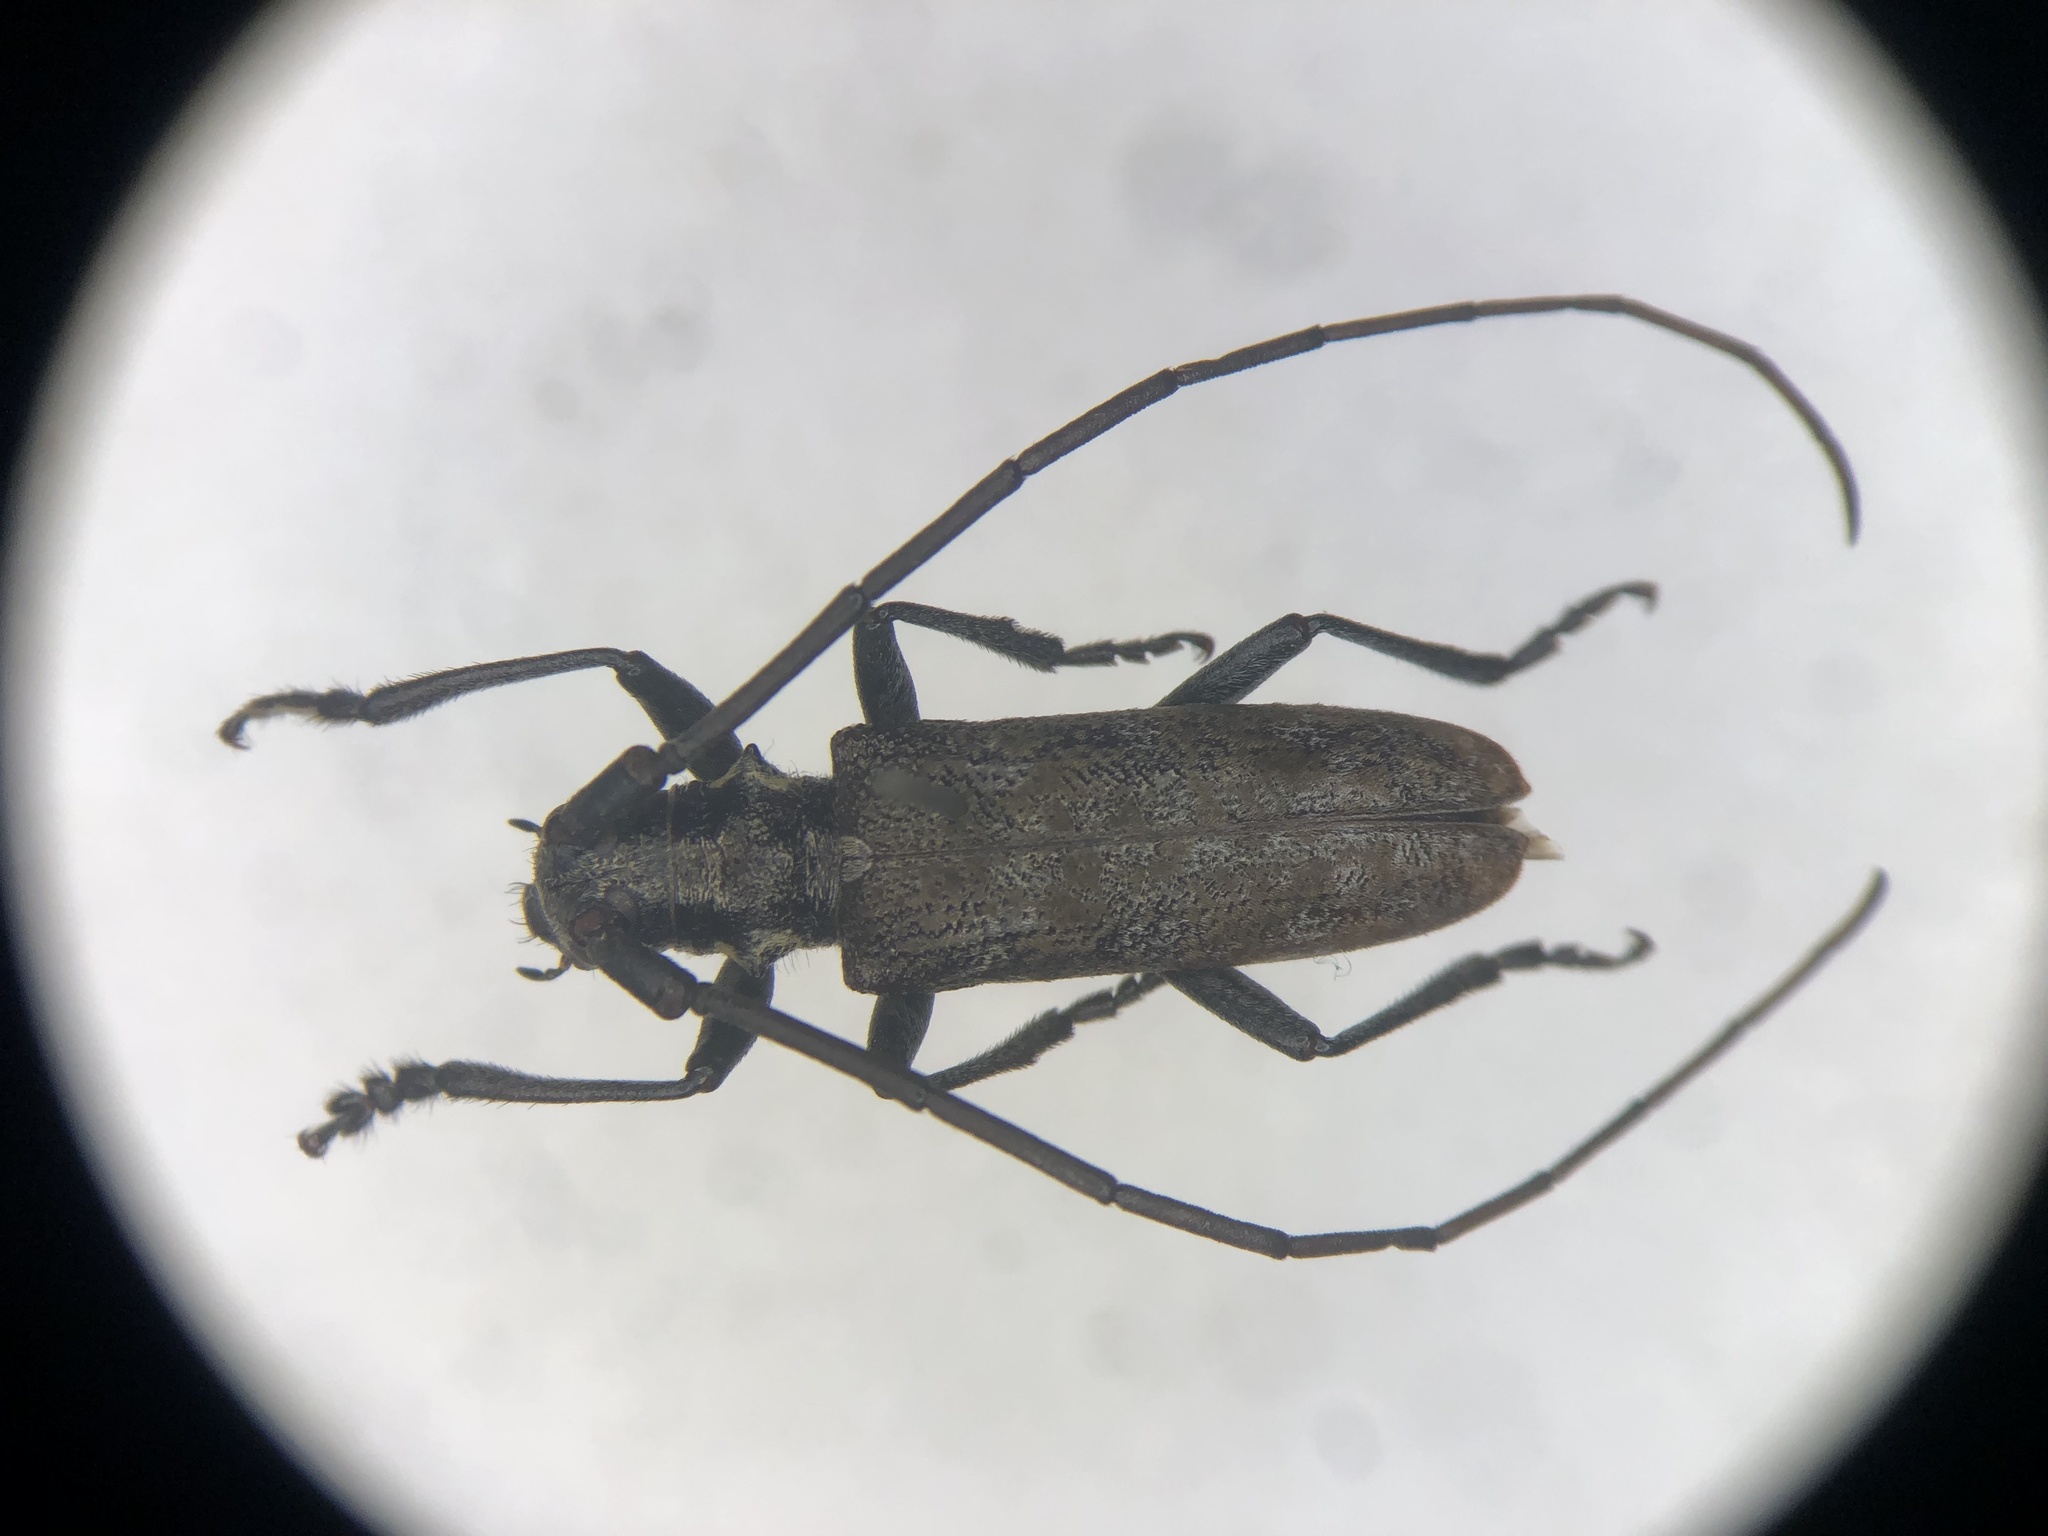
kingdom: Animalia
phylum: Arthropoda
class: Insecta
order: Coleoptera
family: Cerambycidae
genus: Monochamus
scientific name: Monochamus
